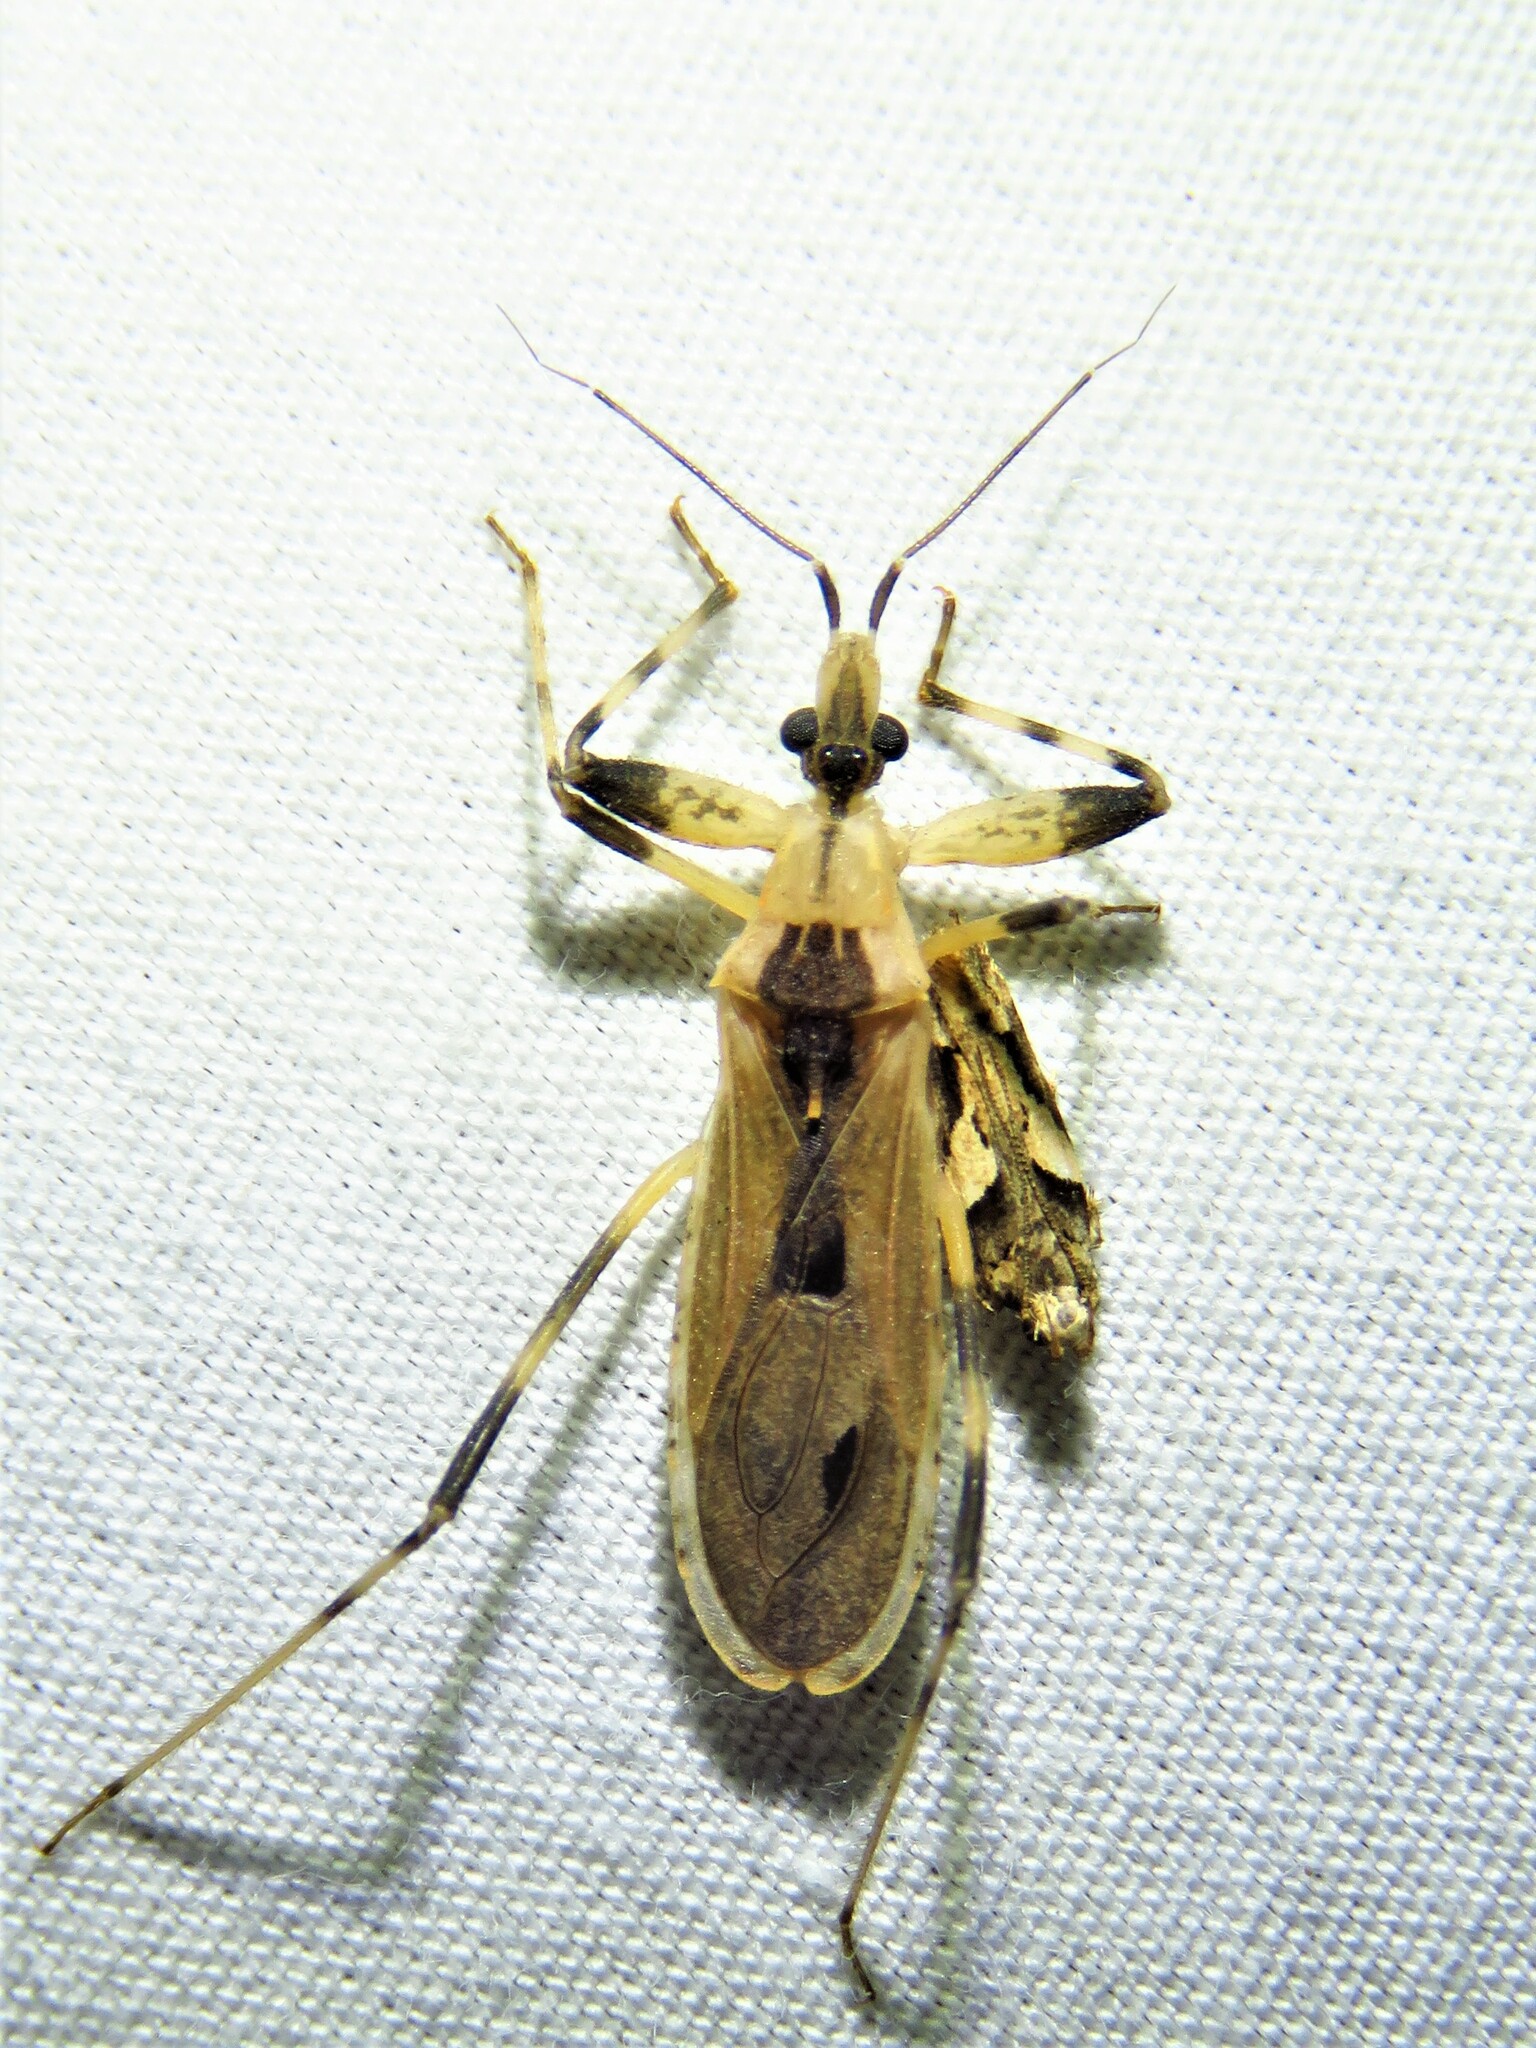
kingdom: Animalia
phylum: Arthropoda
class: Insecta
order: Hemiptera
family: Reduviidae
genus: Oncocephalus
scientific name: Oncocephalus geniculatus
